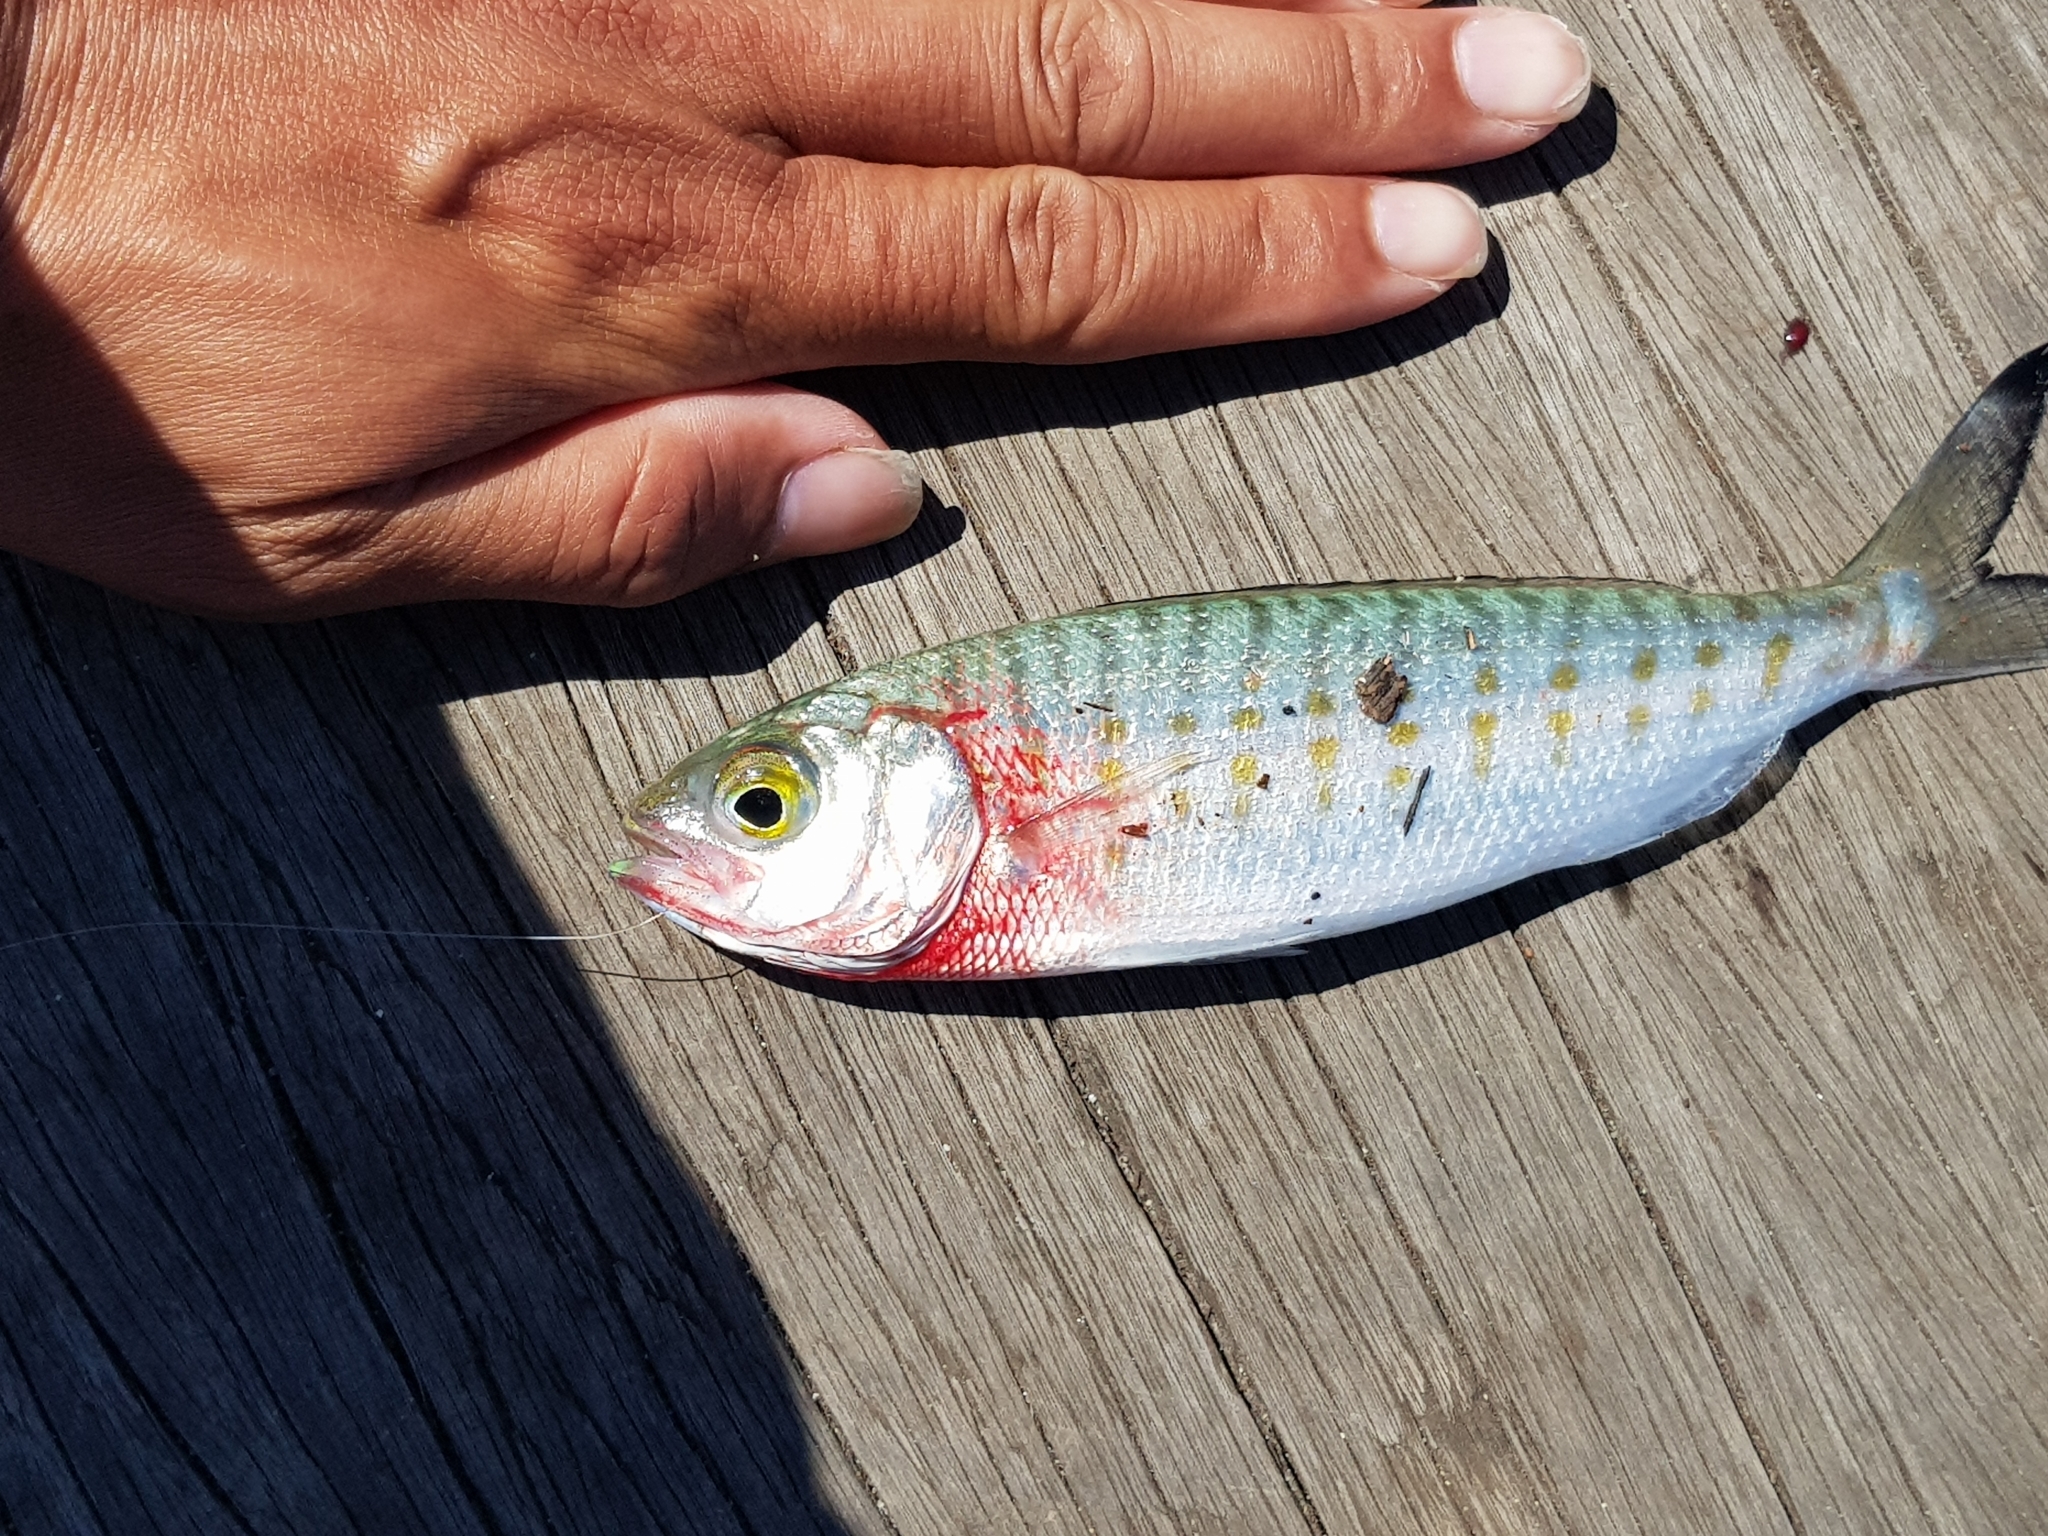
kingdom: Animalia
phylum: Chordata
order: Perciformes
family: Arripidae
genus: Arripis
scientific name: Arripis georgianus
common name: Australian herring
